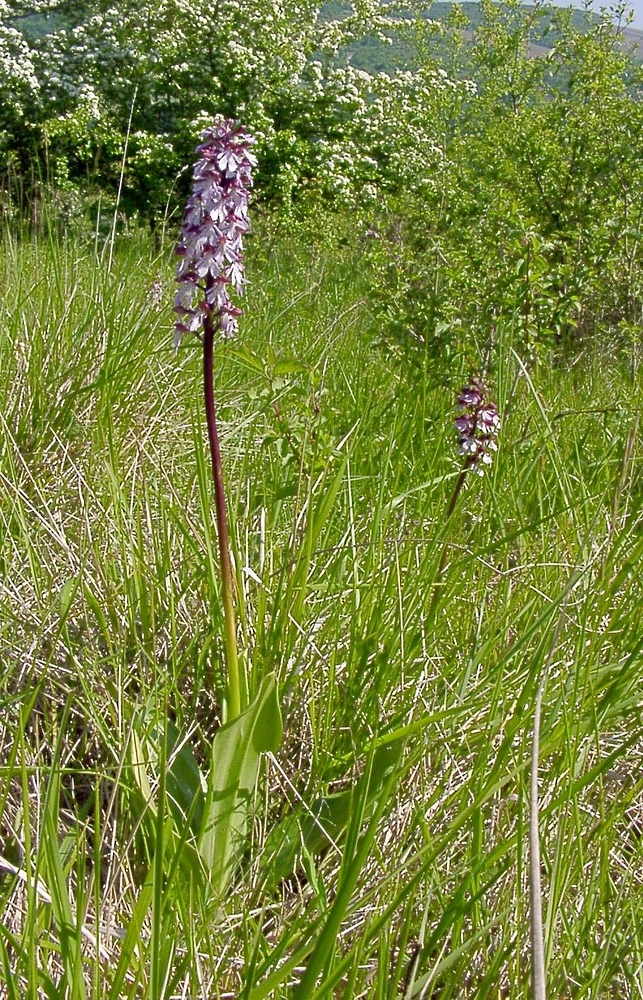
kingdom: Plantae
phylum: Tracheophyta
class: Liliopsida
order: Asparagales
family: Orchidaceae
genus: Orchis
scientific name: Orchis purpurea
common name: Lady orchid
